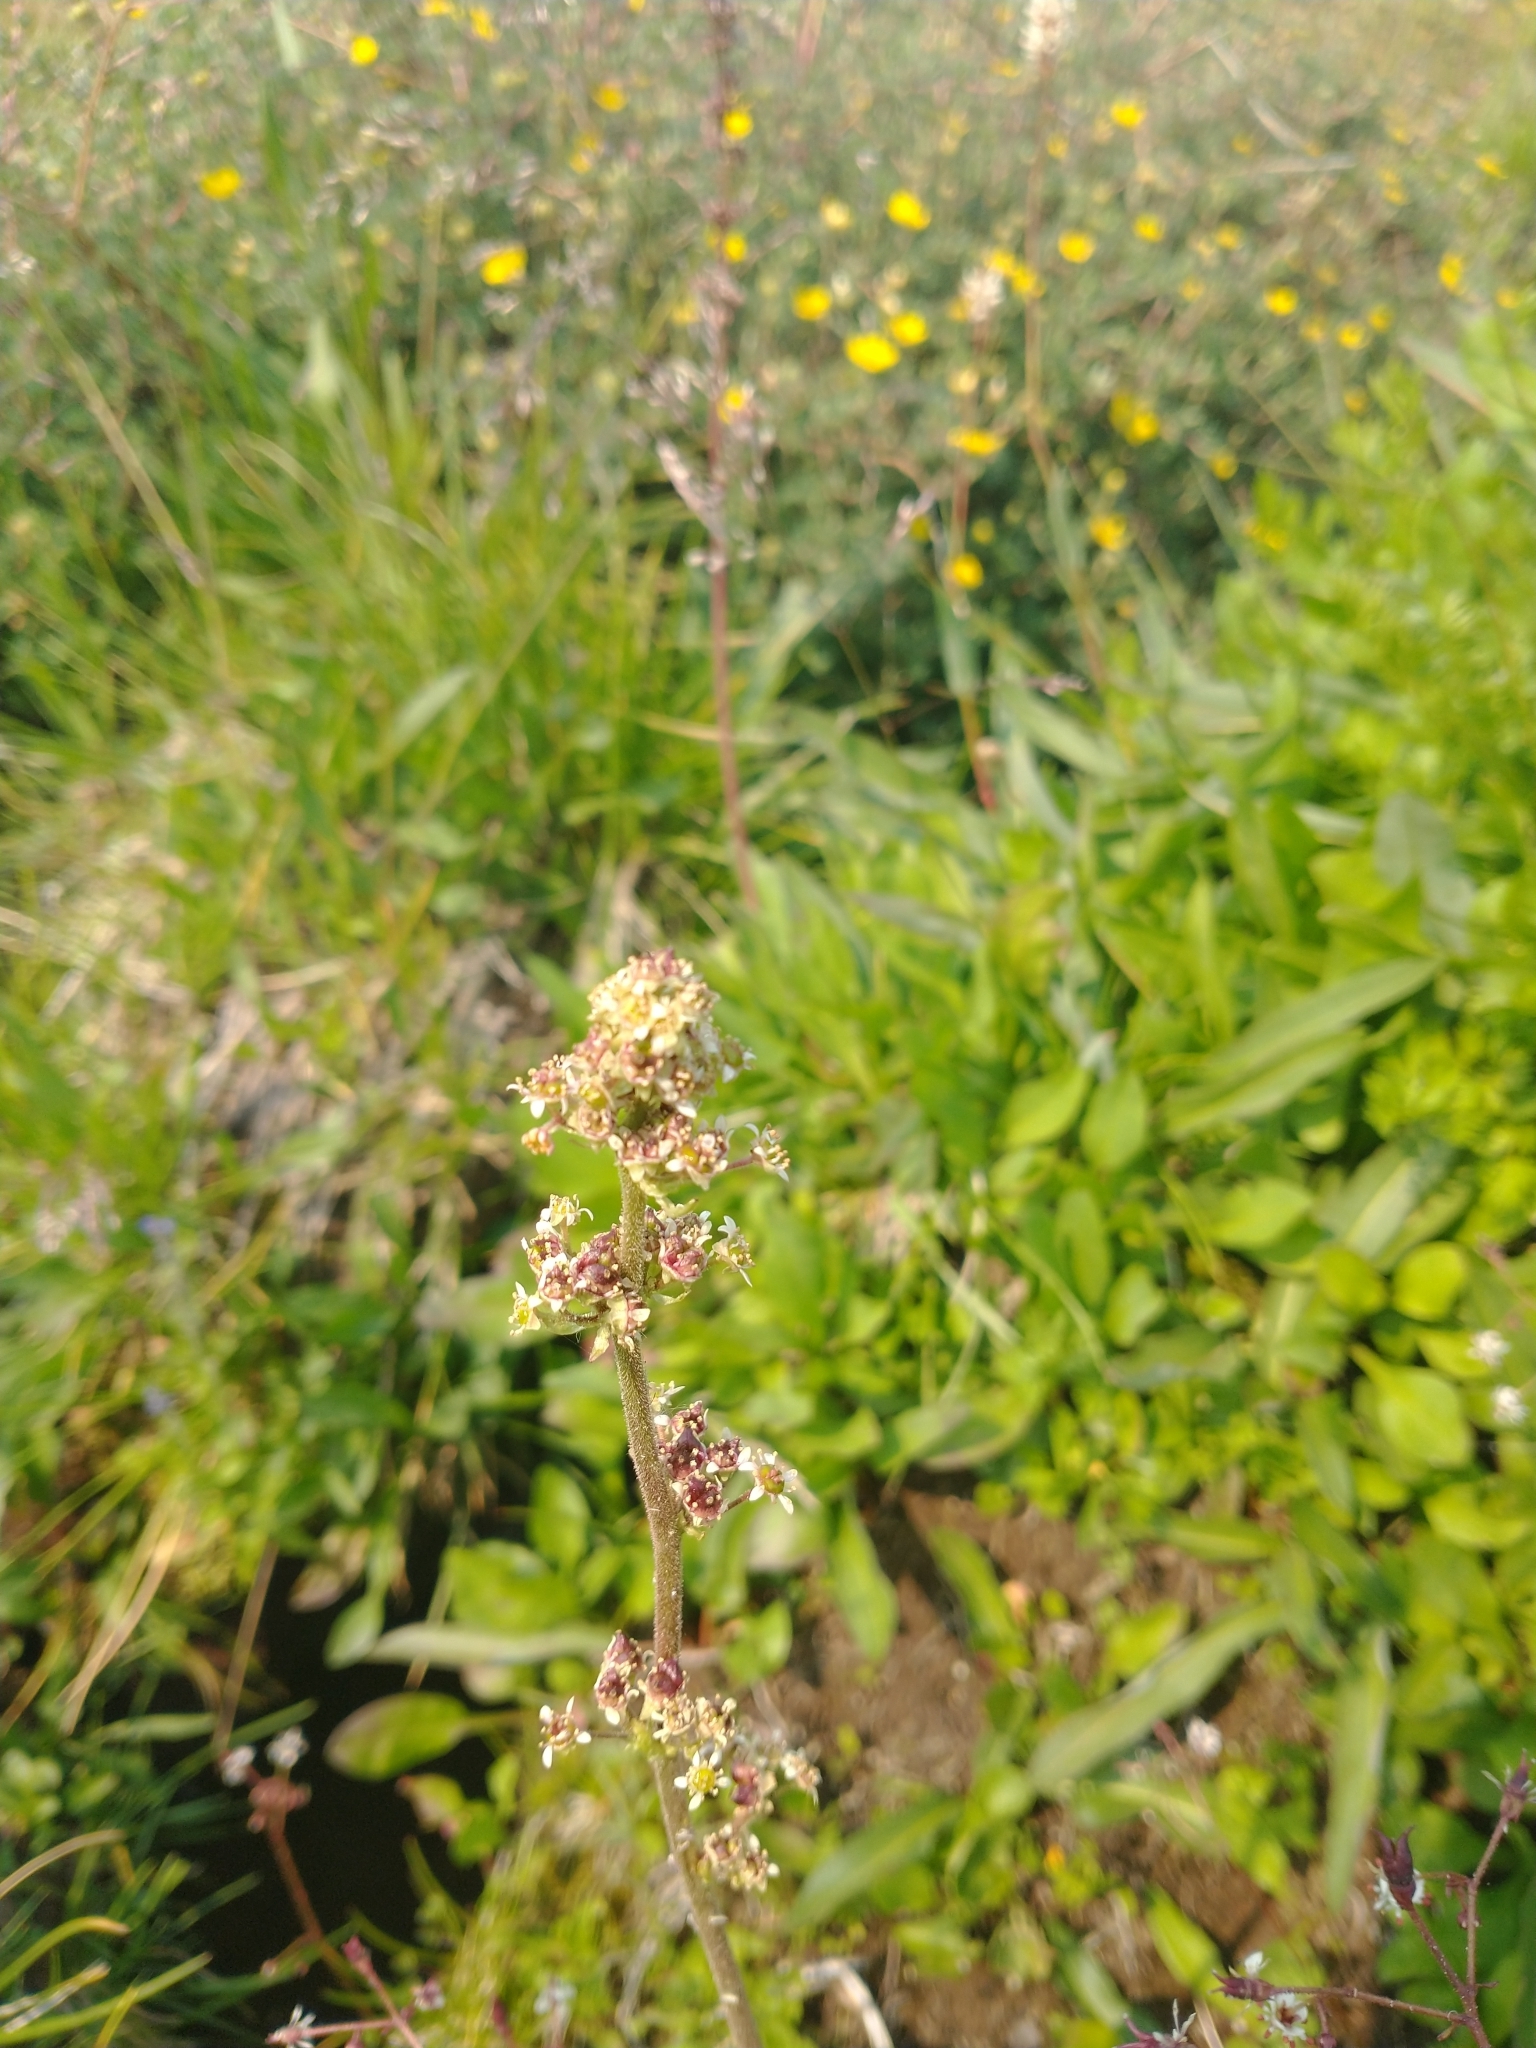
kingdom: Plantae
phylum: Tracheophyta
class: Magnoliopsida
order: Saxifragales
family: Saxifragaceae
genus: Micranthes
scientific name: Micranthes oregana
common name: Bog saxifrage
